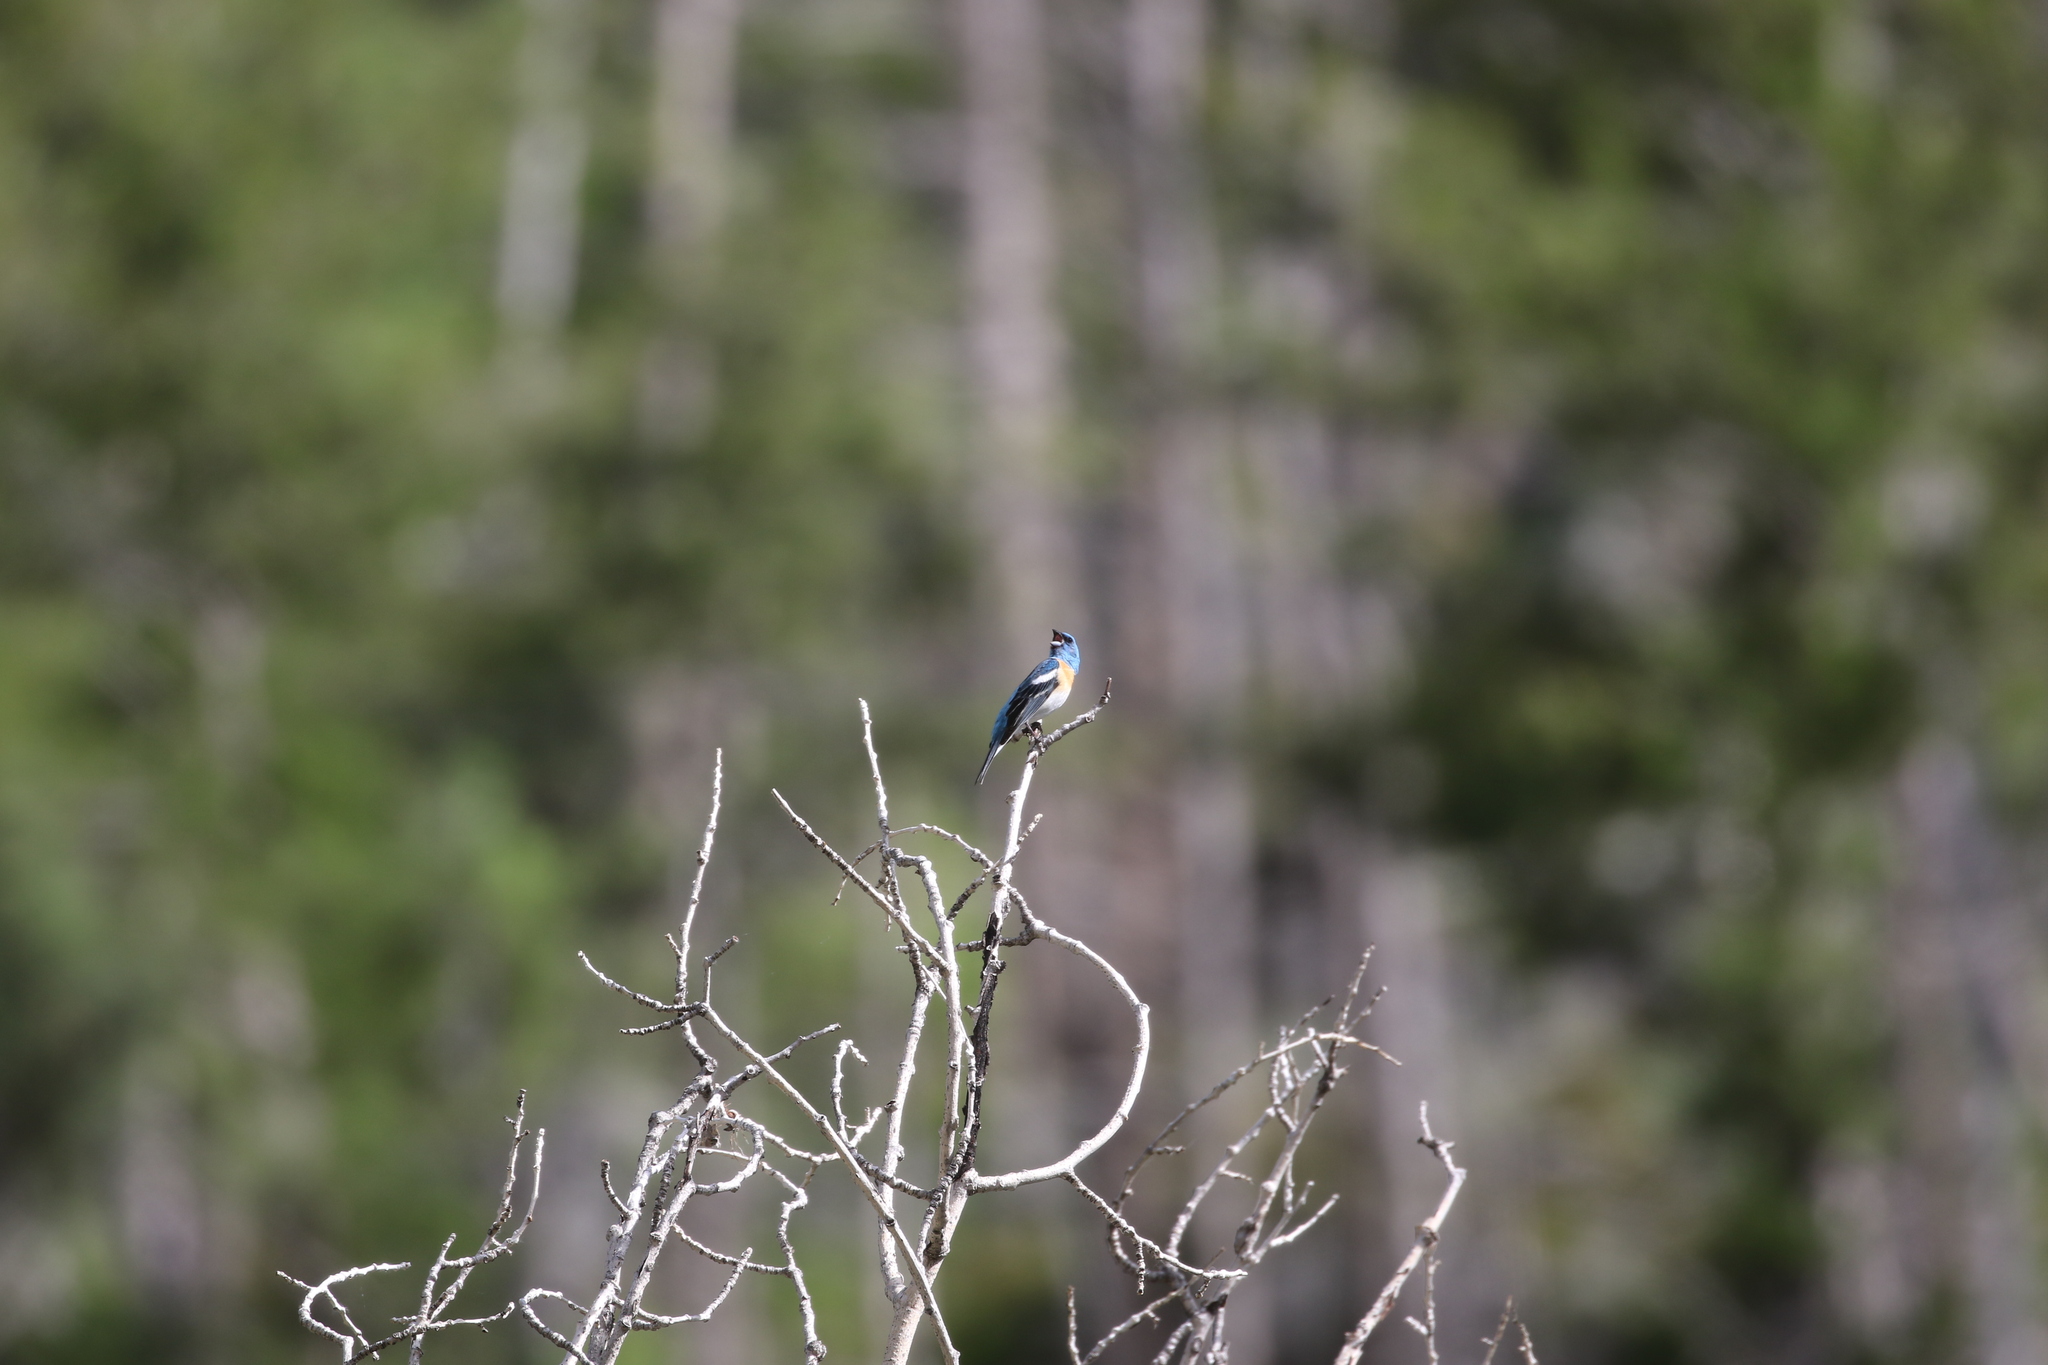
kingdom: Animalia
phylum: Chordata
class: Aves
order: Passeriformes
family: Cardinalidae
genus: Passerina
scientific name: Passerina amoena
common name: Lazuli bunting
